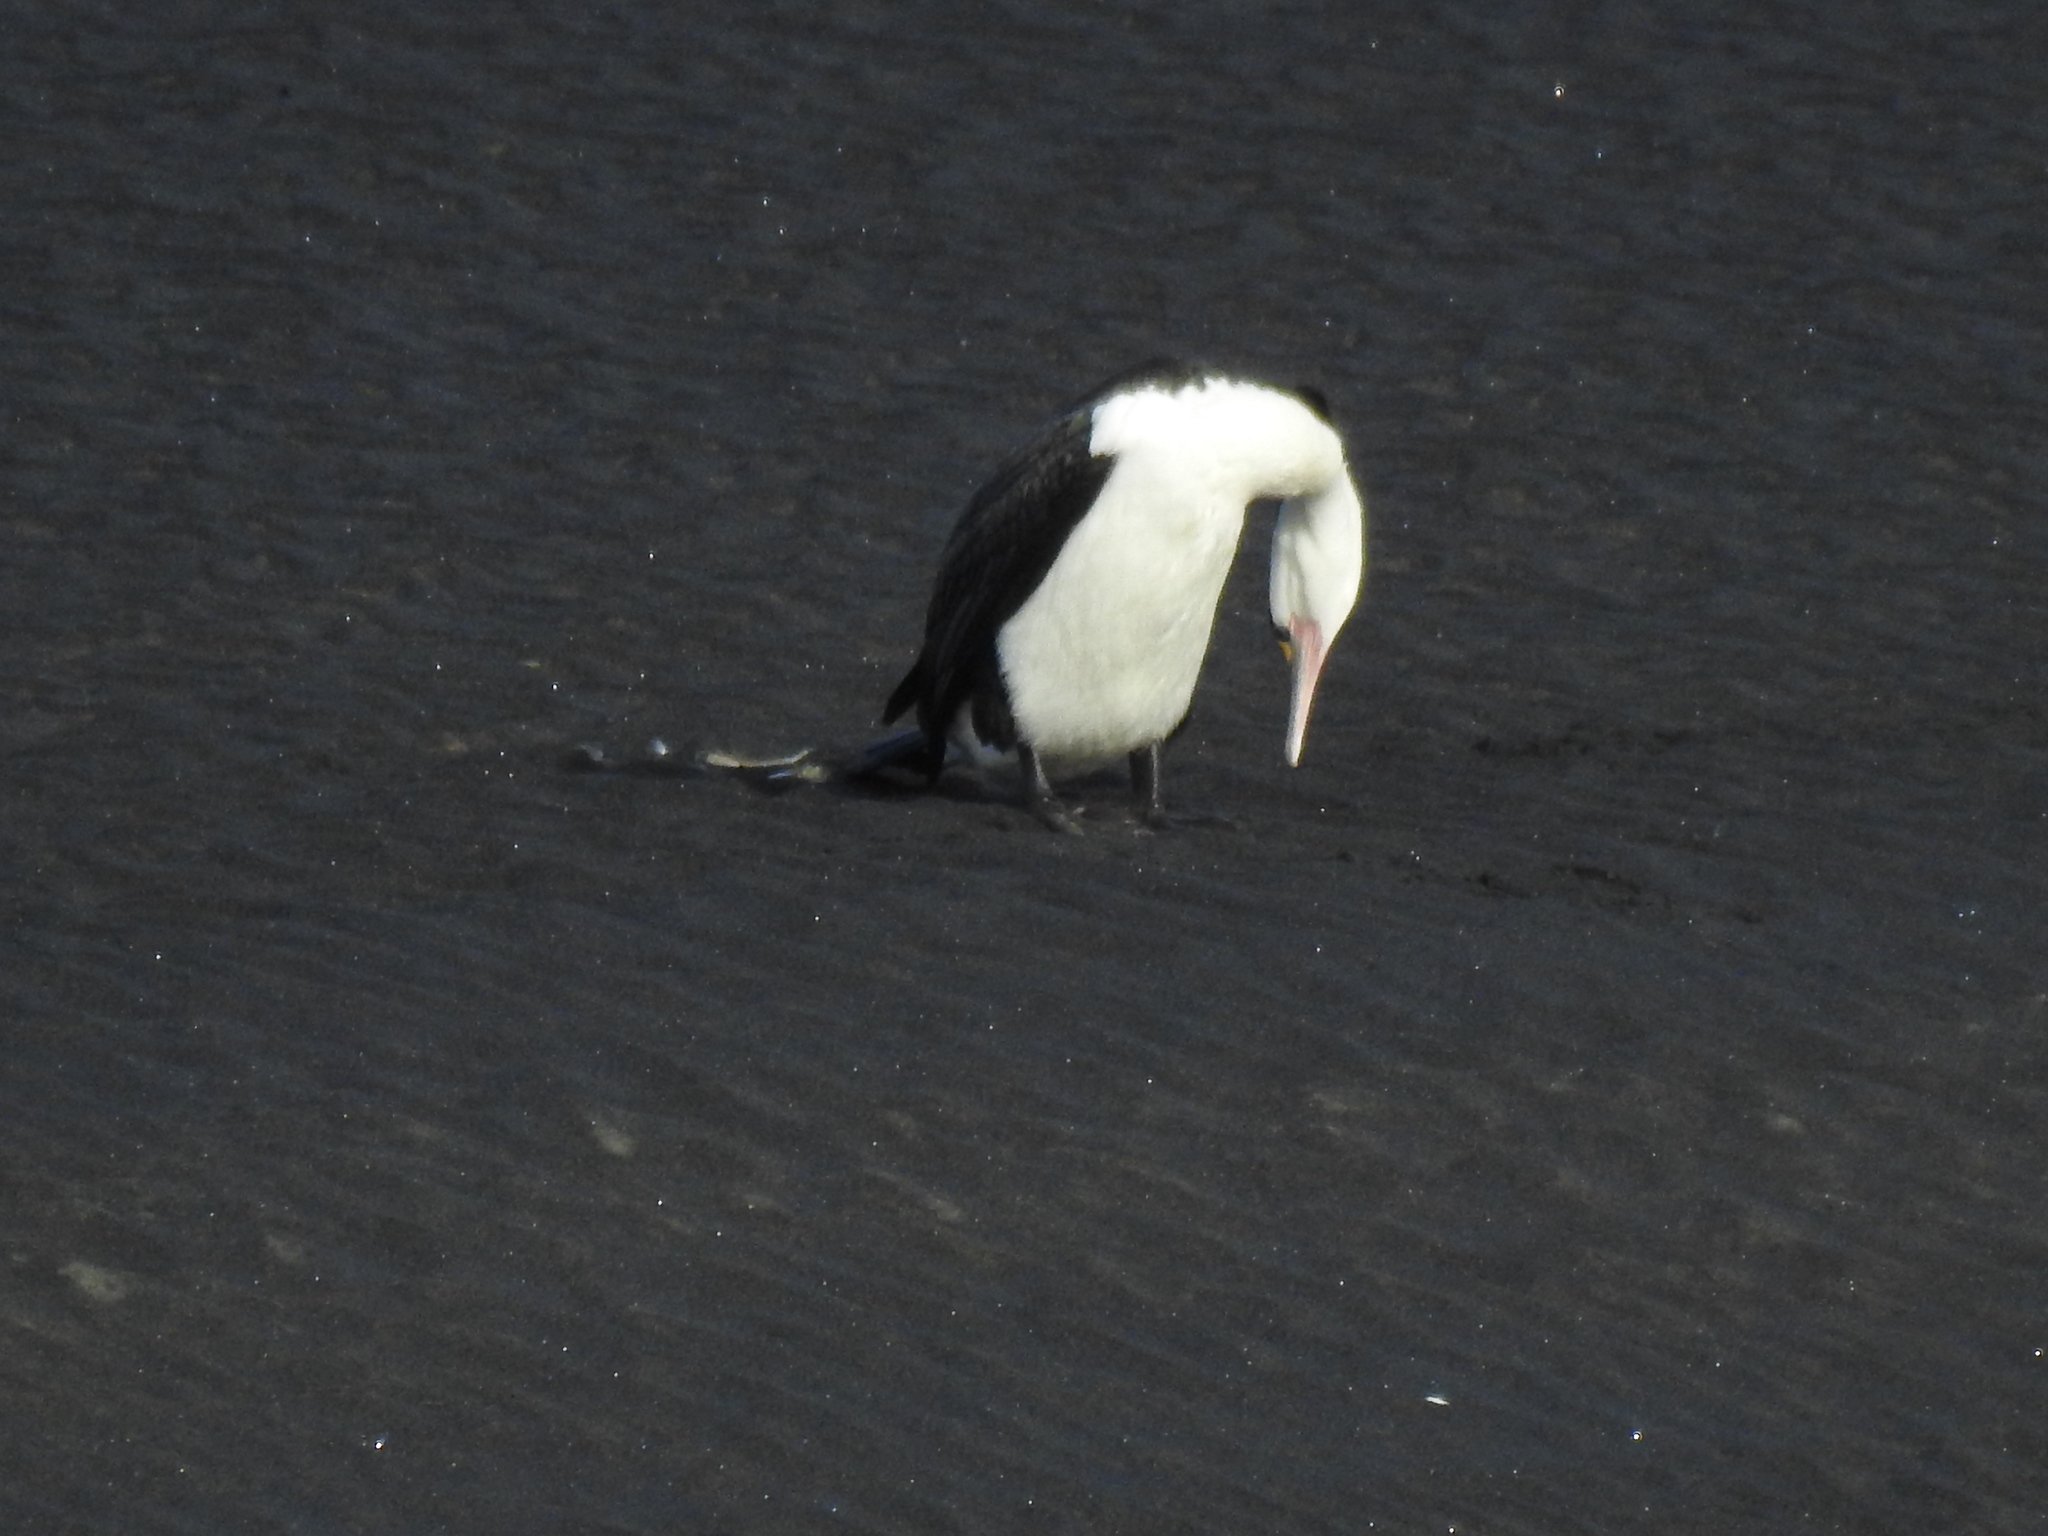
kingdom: Animalia
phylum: Chordata
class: Aves
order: Suliformes
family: Phalacrocoracidae
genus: Phalacrocorax
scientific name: Phalacrocorax varius
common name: Pied cormorant
